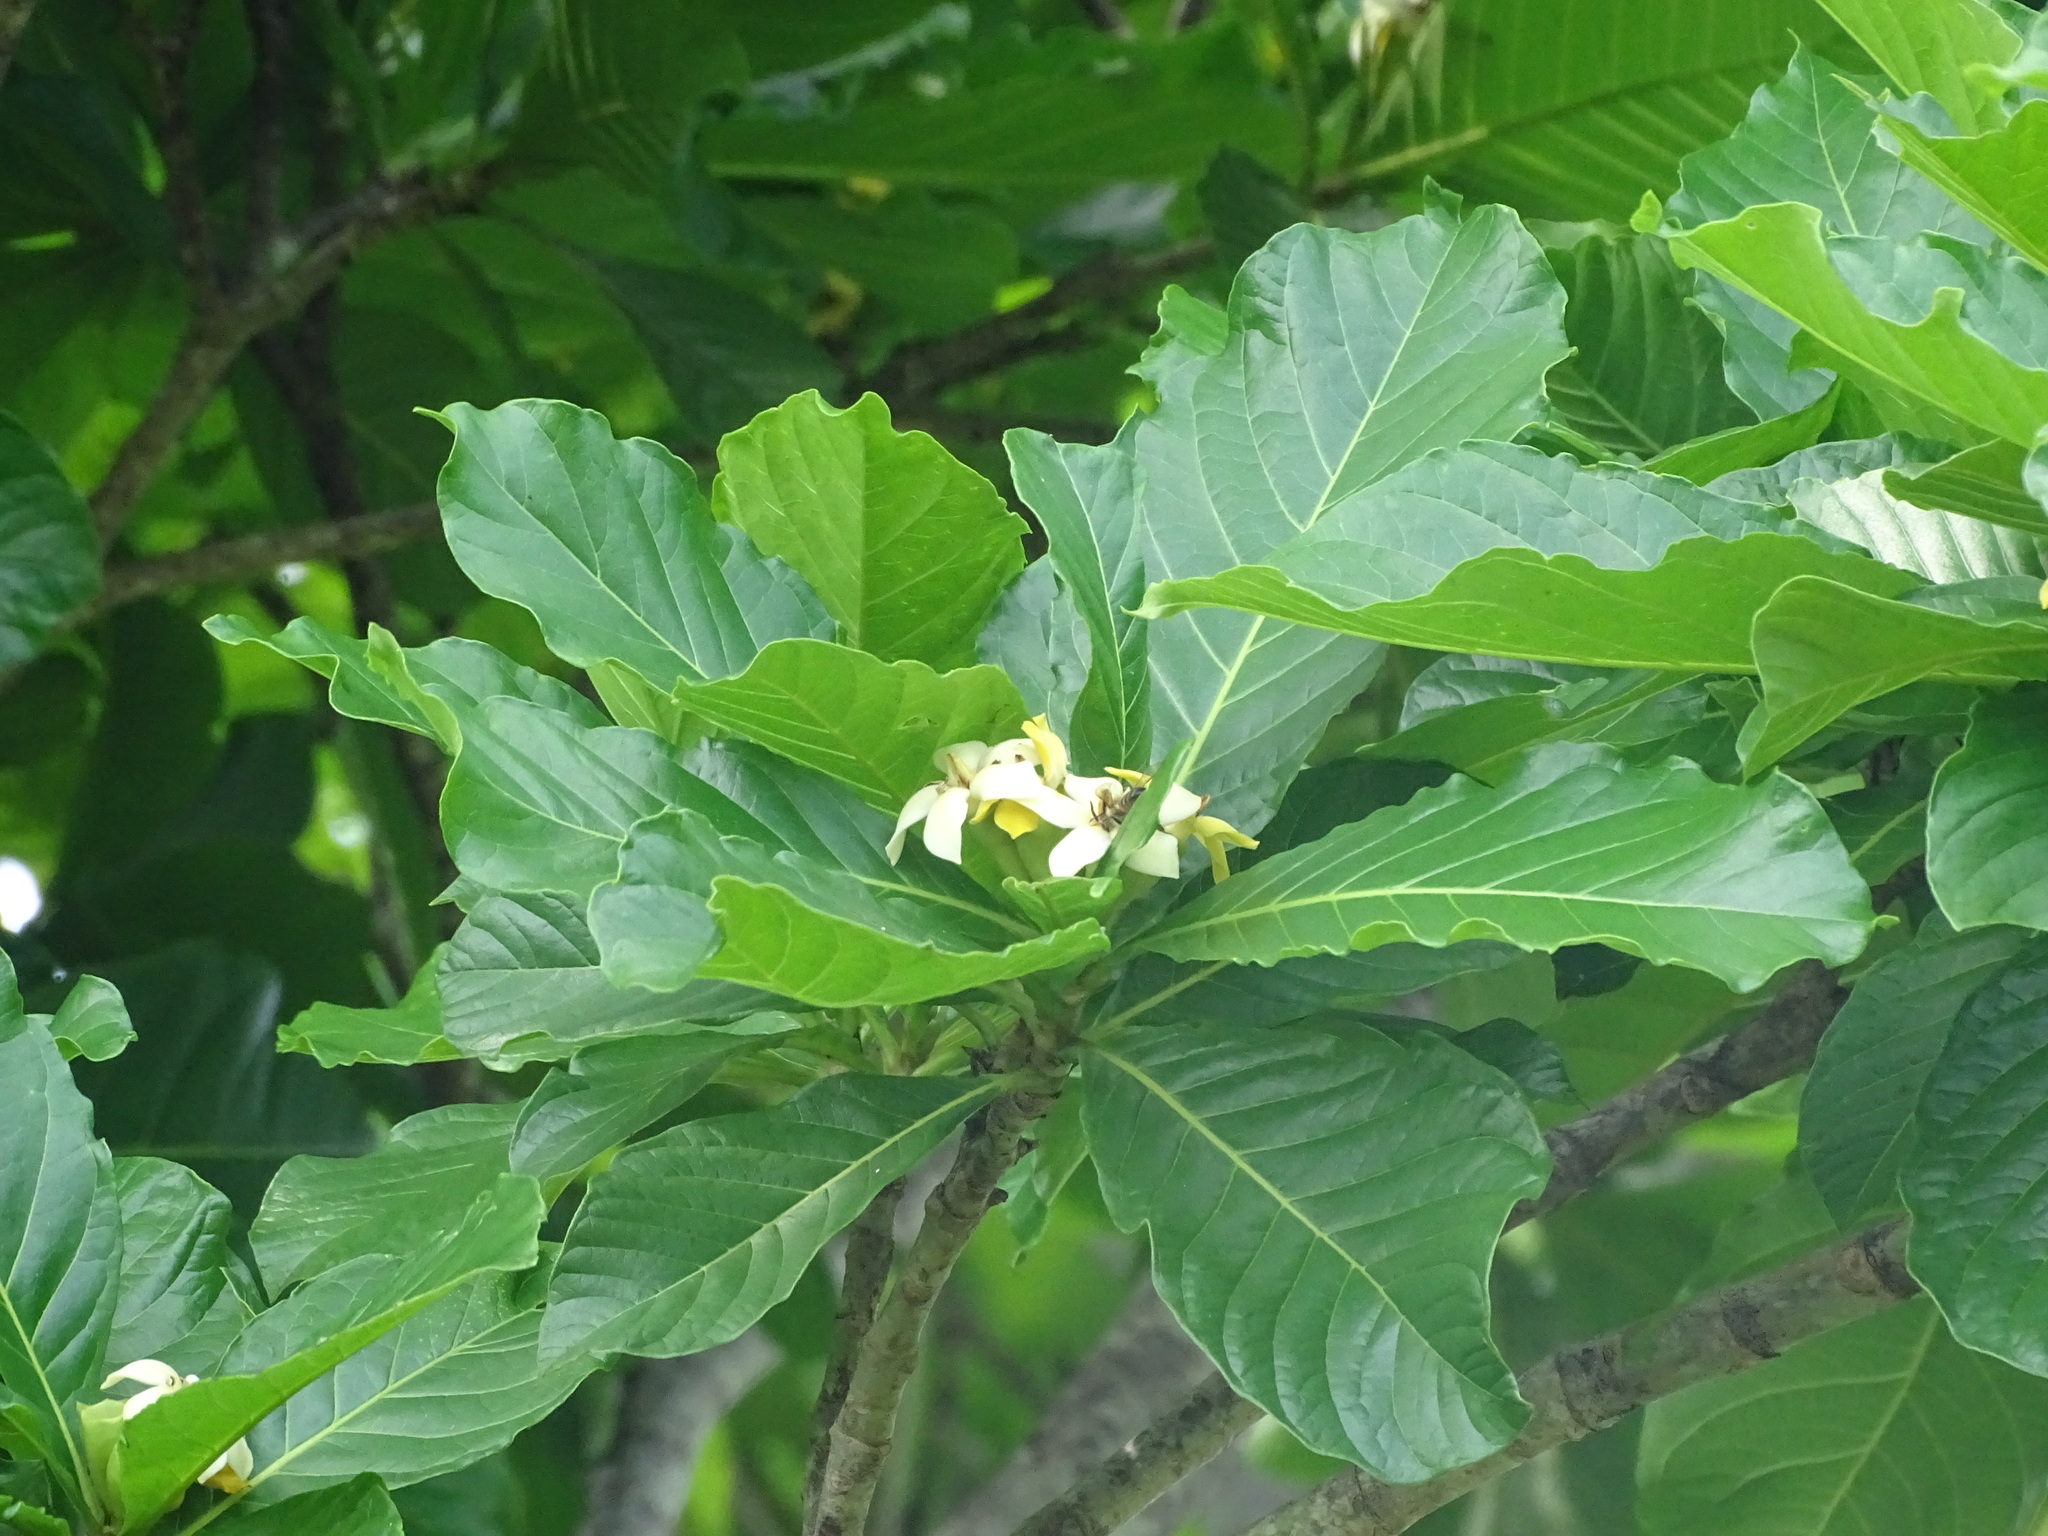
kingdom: Plantae
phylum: Tracheophyta
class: Magnoliopsida
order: Gentianales
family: Rubiaceae
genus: Genipa
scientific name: Genipa americana
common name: Genipap
